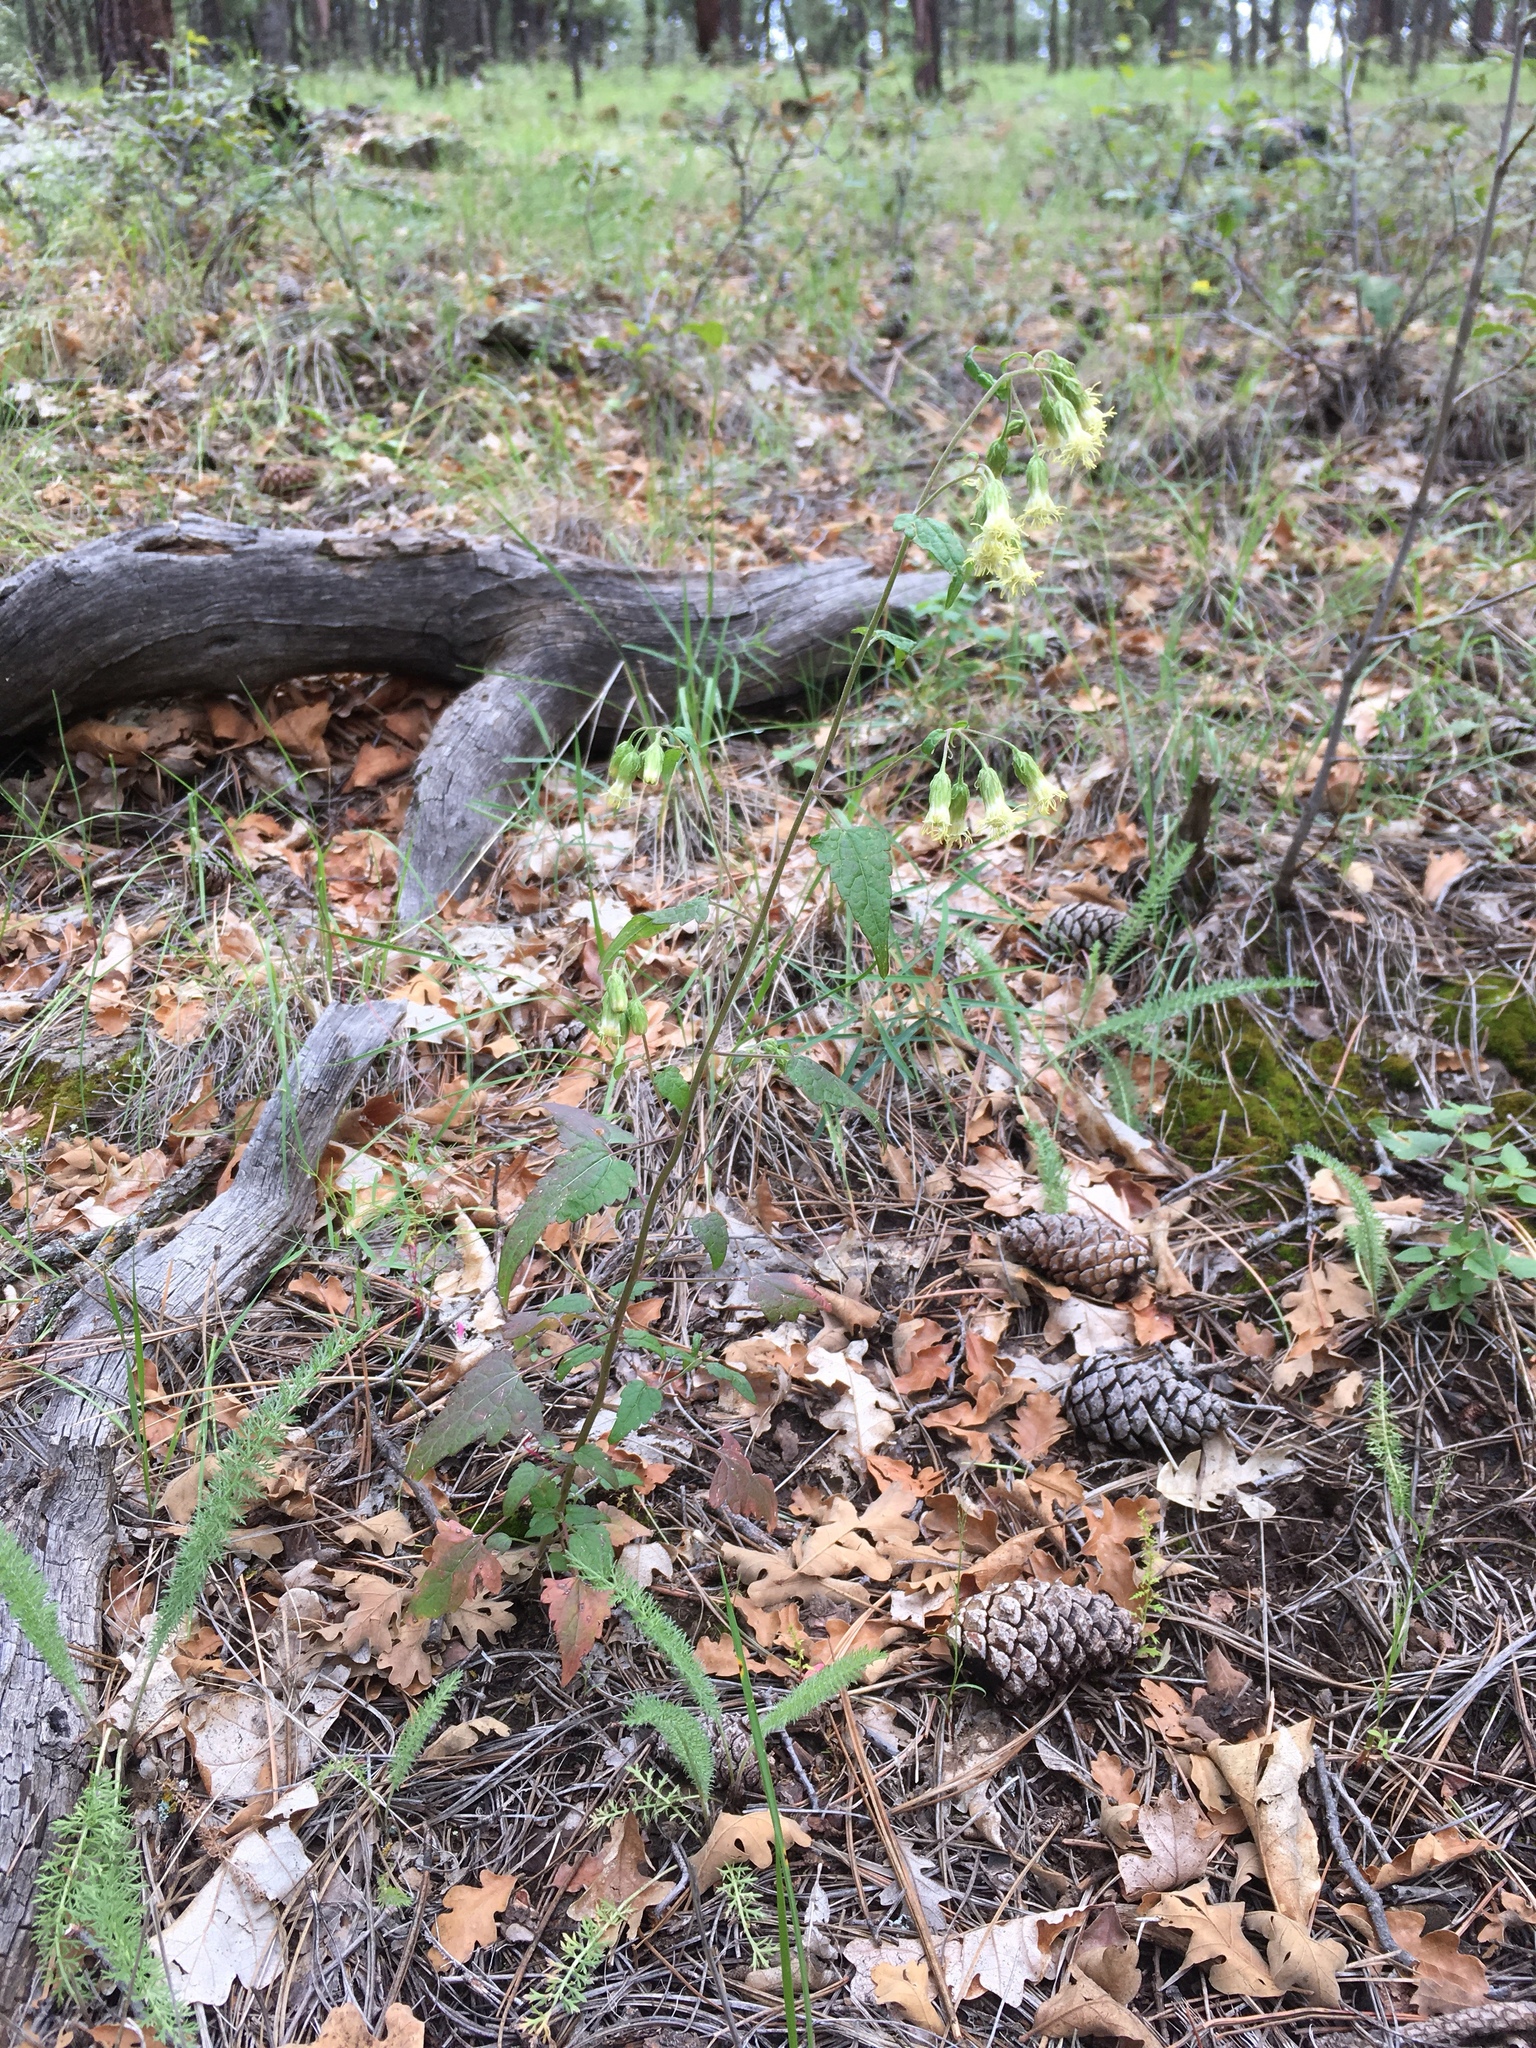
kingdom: Plantae
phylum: Tracheophyta
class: Magnoliopsida
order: Asterales
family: Asteraceae
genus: Brickellia
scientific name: Brickellia grandiflora
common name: Large-flowered brickellia
